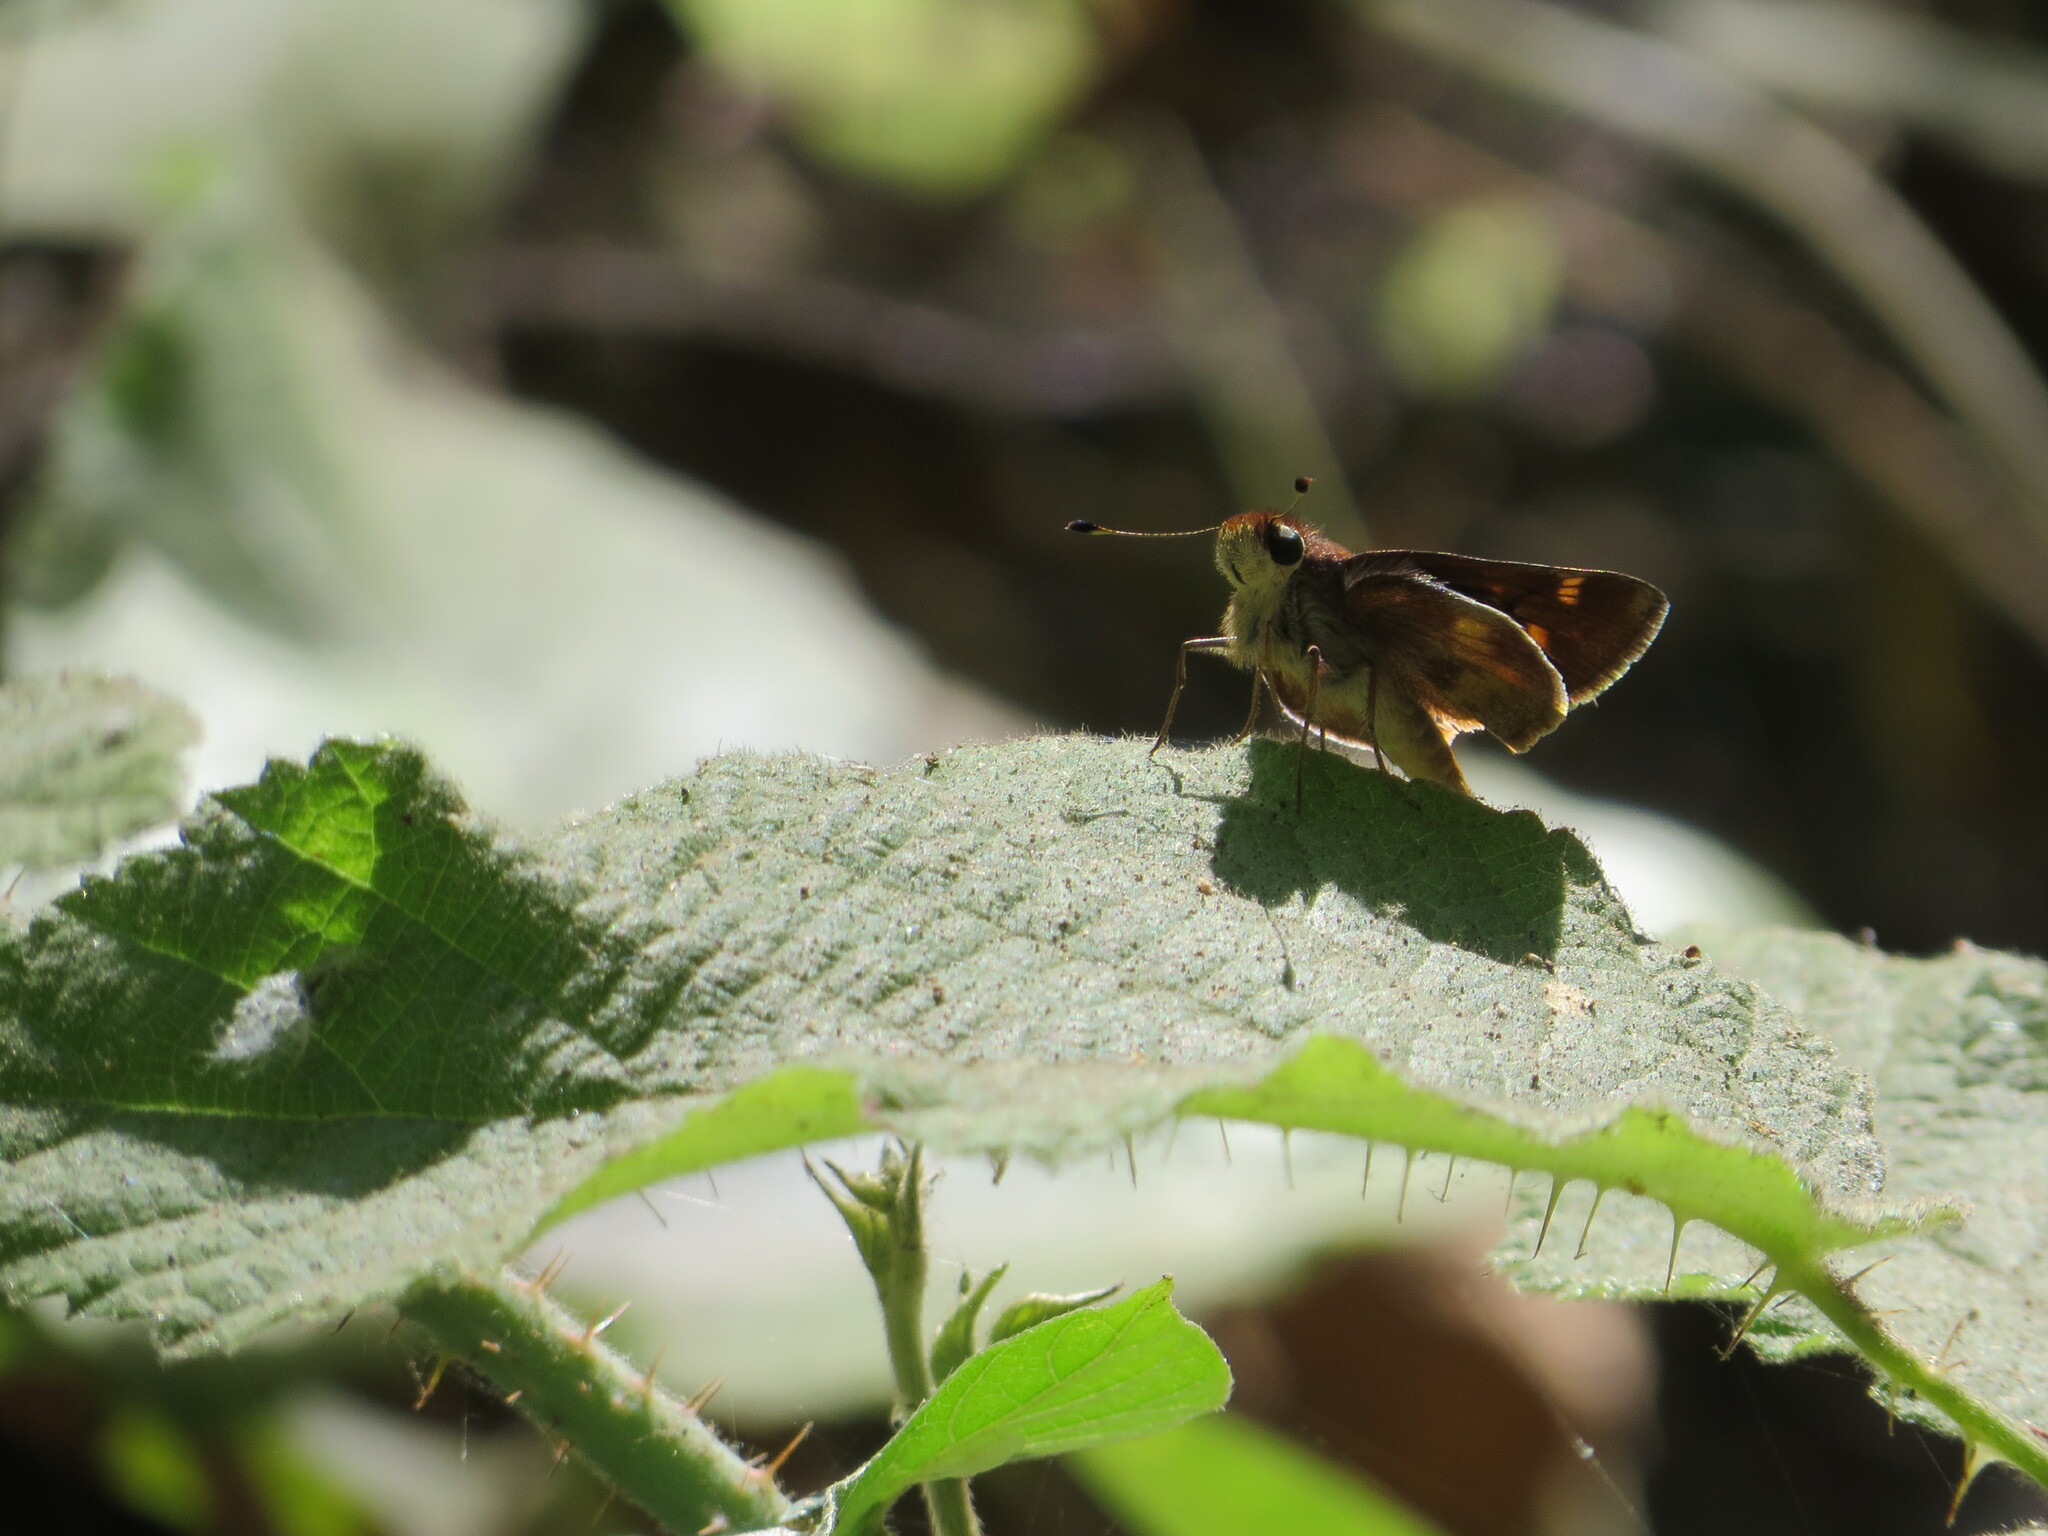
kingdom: Animalia
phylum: Arthropoda
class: Insecta
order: Lepidoptera
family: Hesperiidae
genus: Lon
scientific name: Lon melane
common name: Umber skipper
